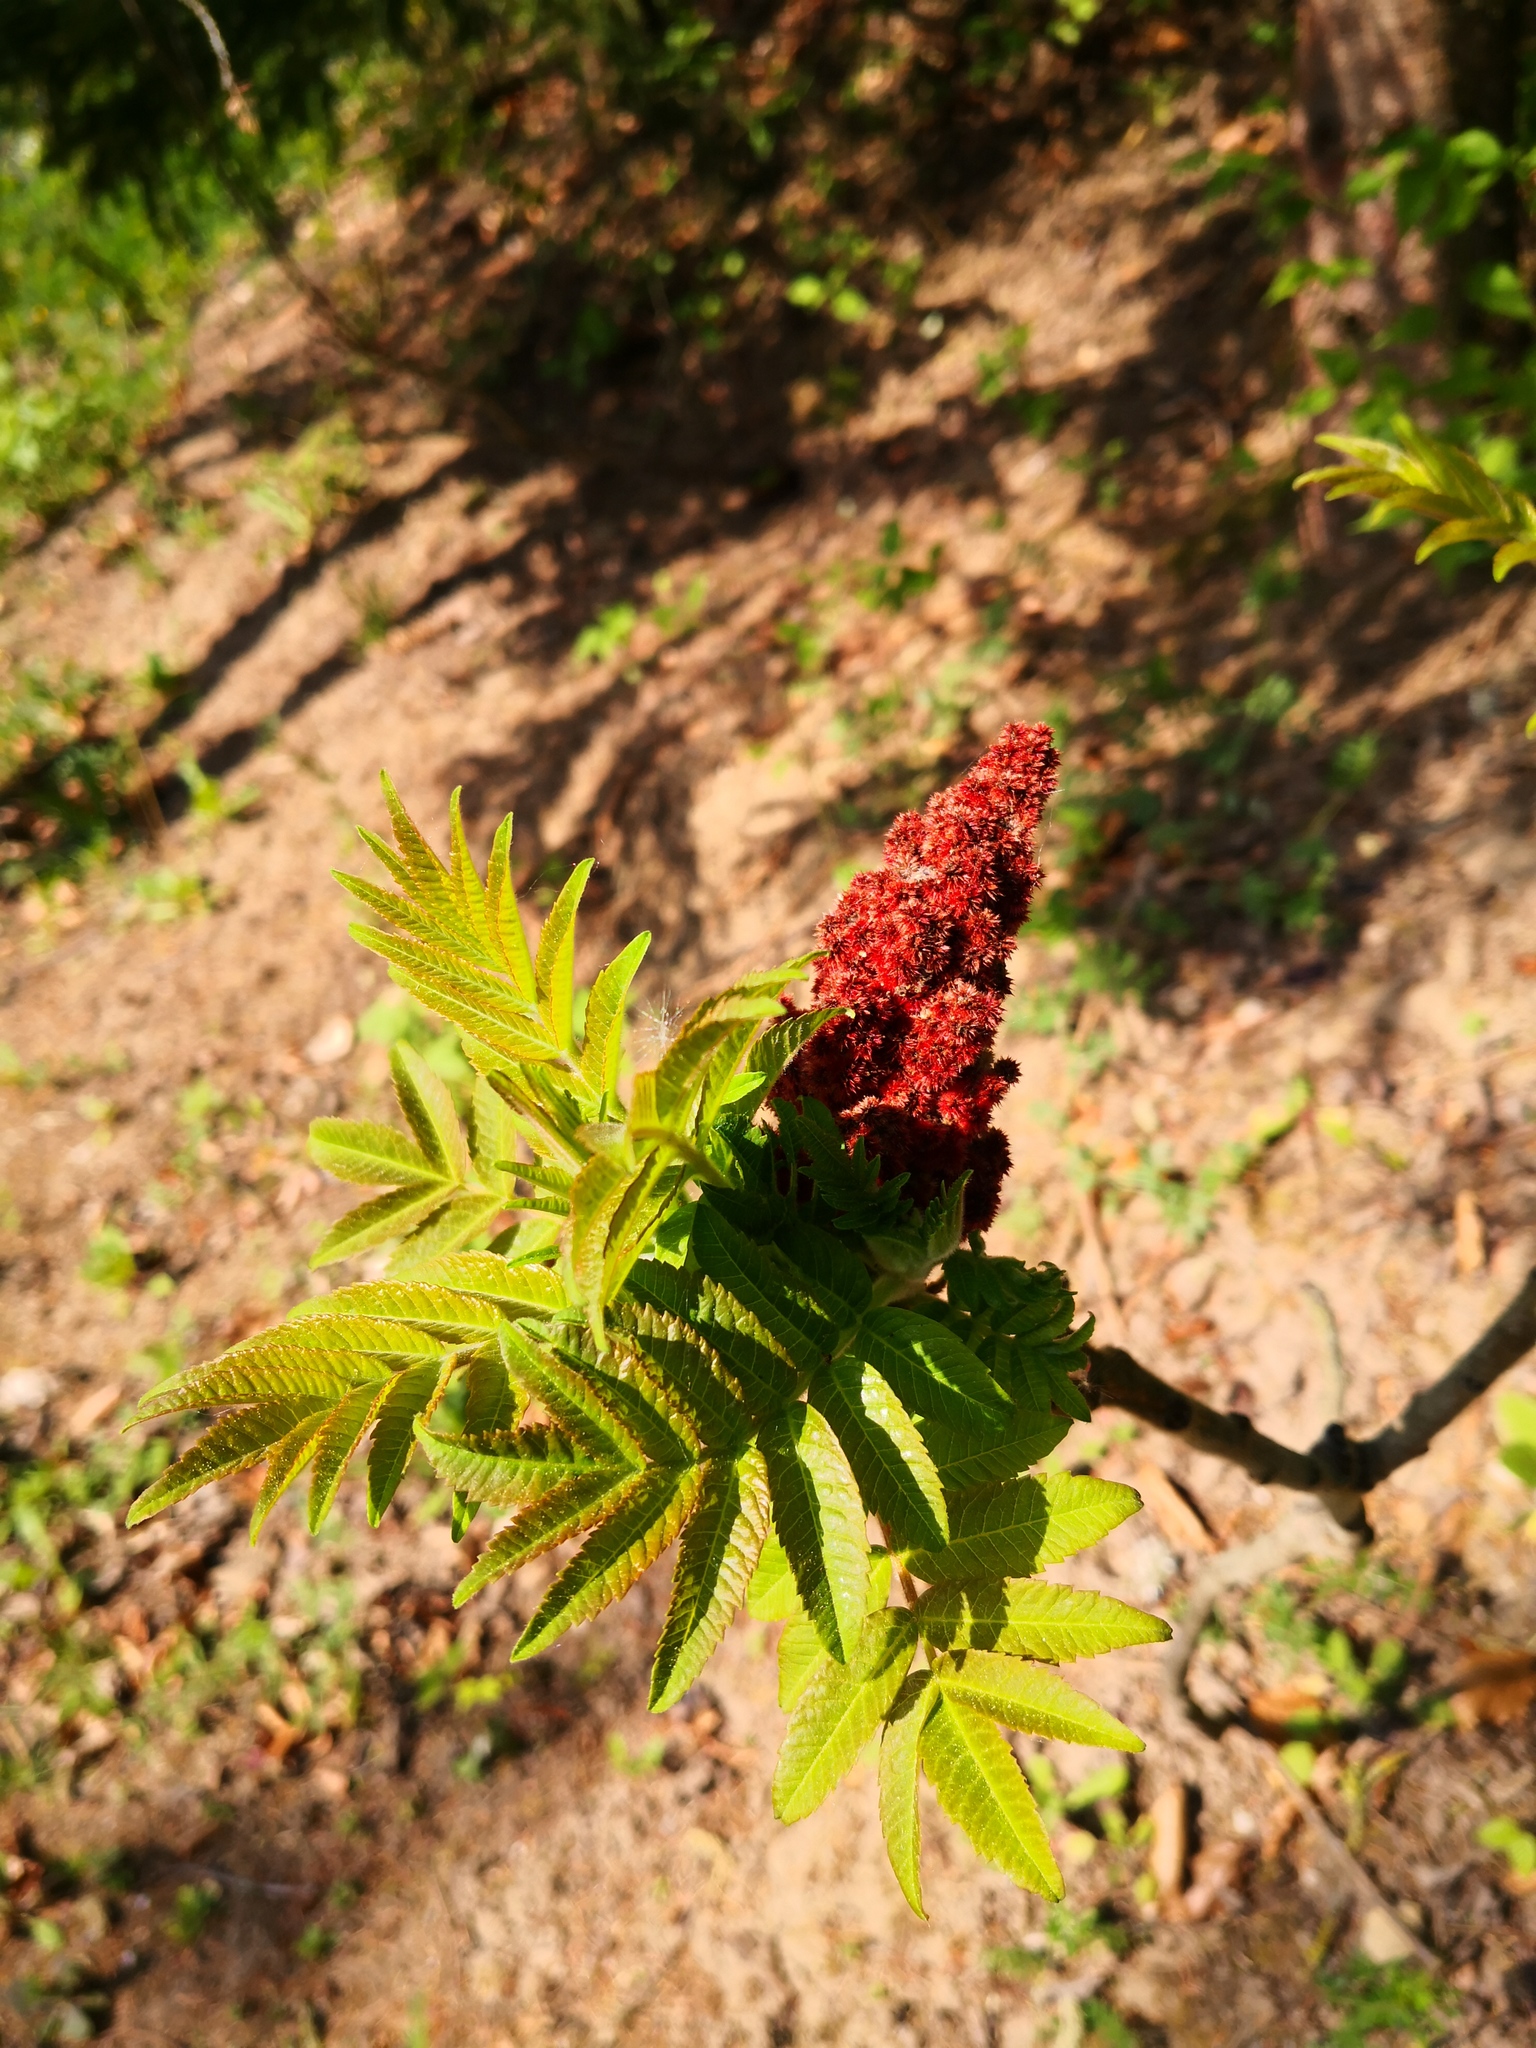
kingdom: Plantae
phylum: Tracheophyta
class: Magnoliopsida
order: Sapindales
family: Anacardiaceae
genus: Rhus
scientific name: Rhus typhina
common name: Staghorn sumac
